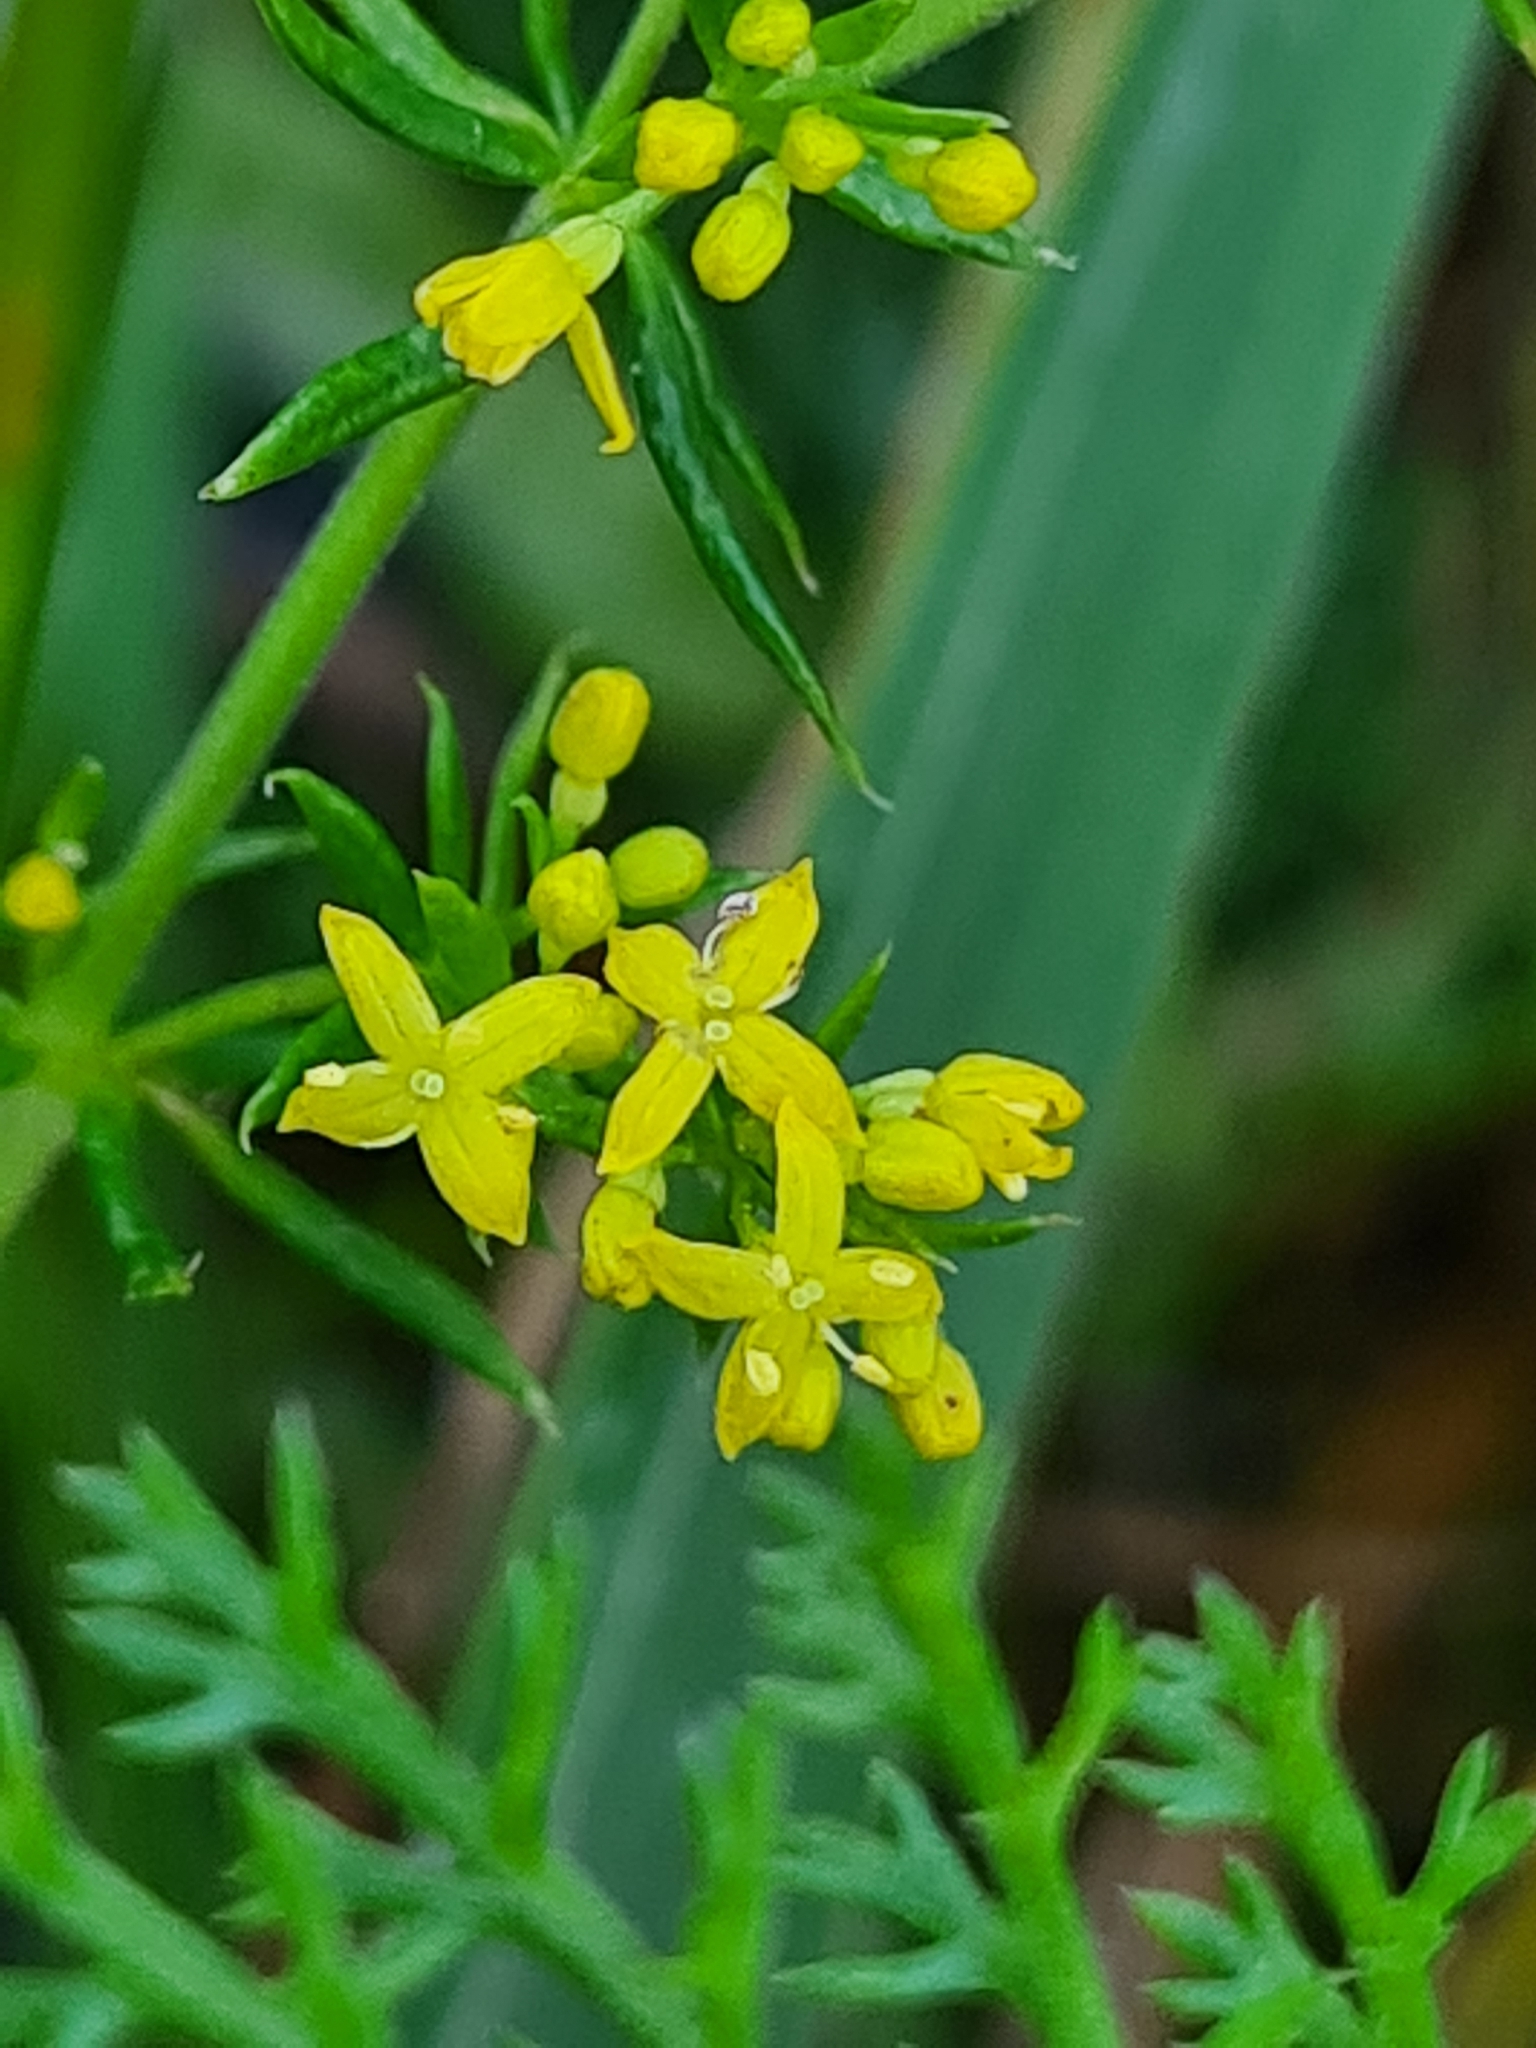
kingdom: Plantae
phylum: Tracheophyta
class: Magnoliopsida
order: Gentianales
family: Rubiaceae
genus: Galium
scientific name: Galium verum
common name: Lady's bedstraw
